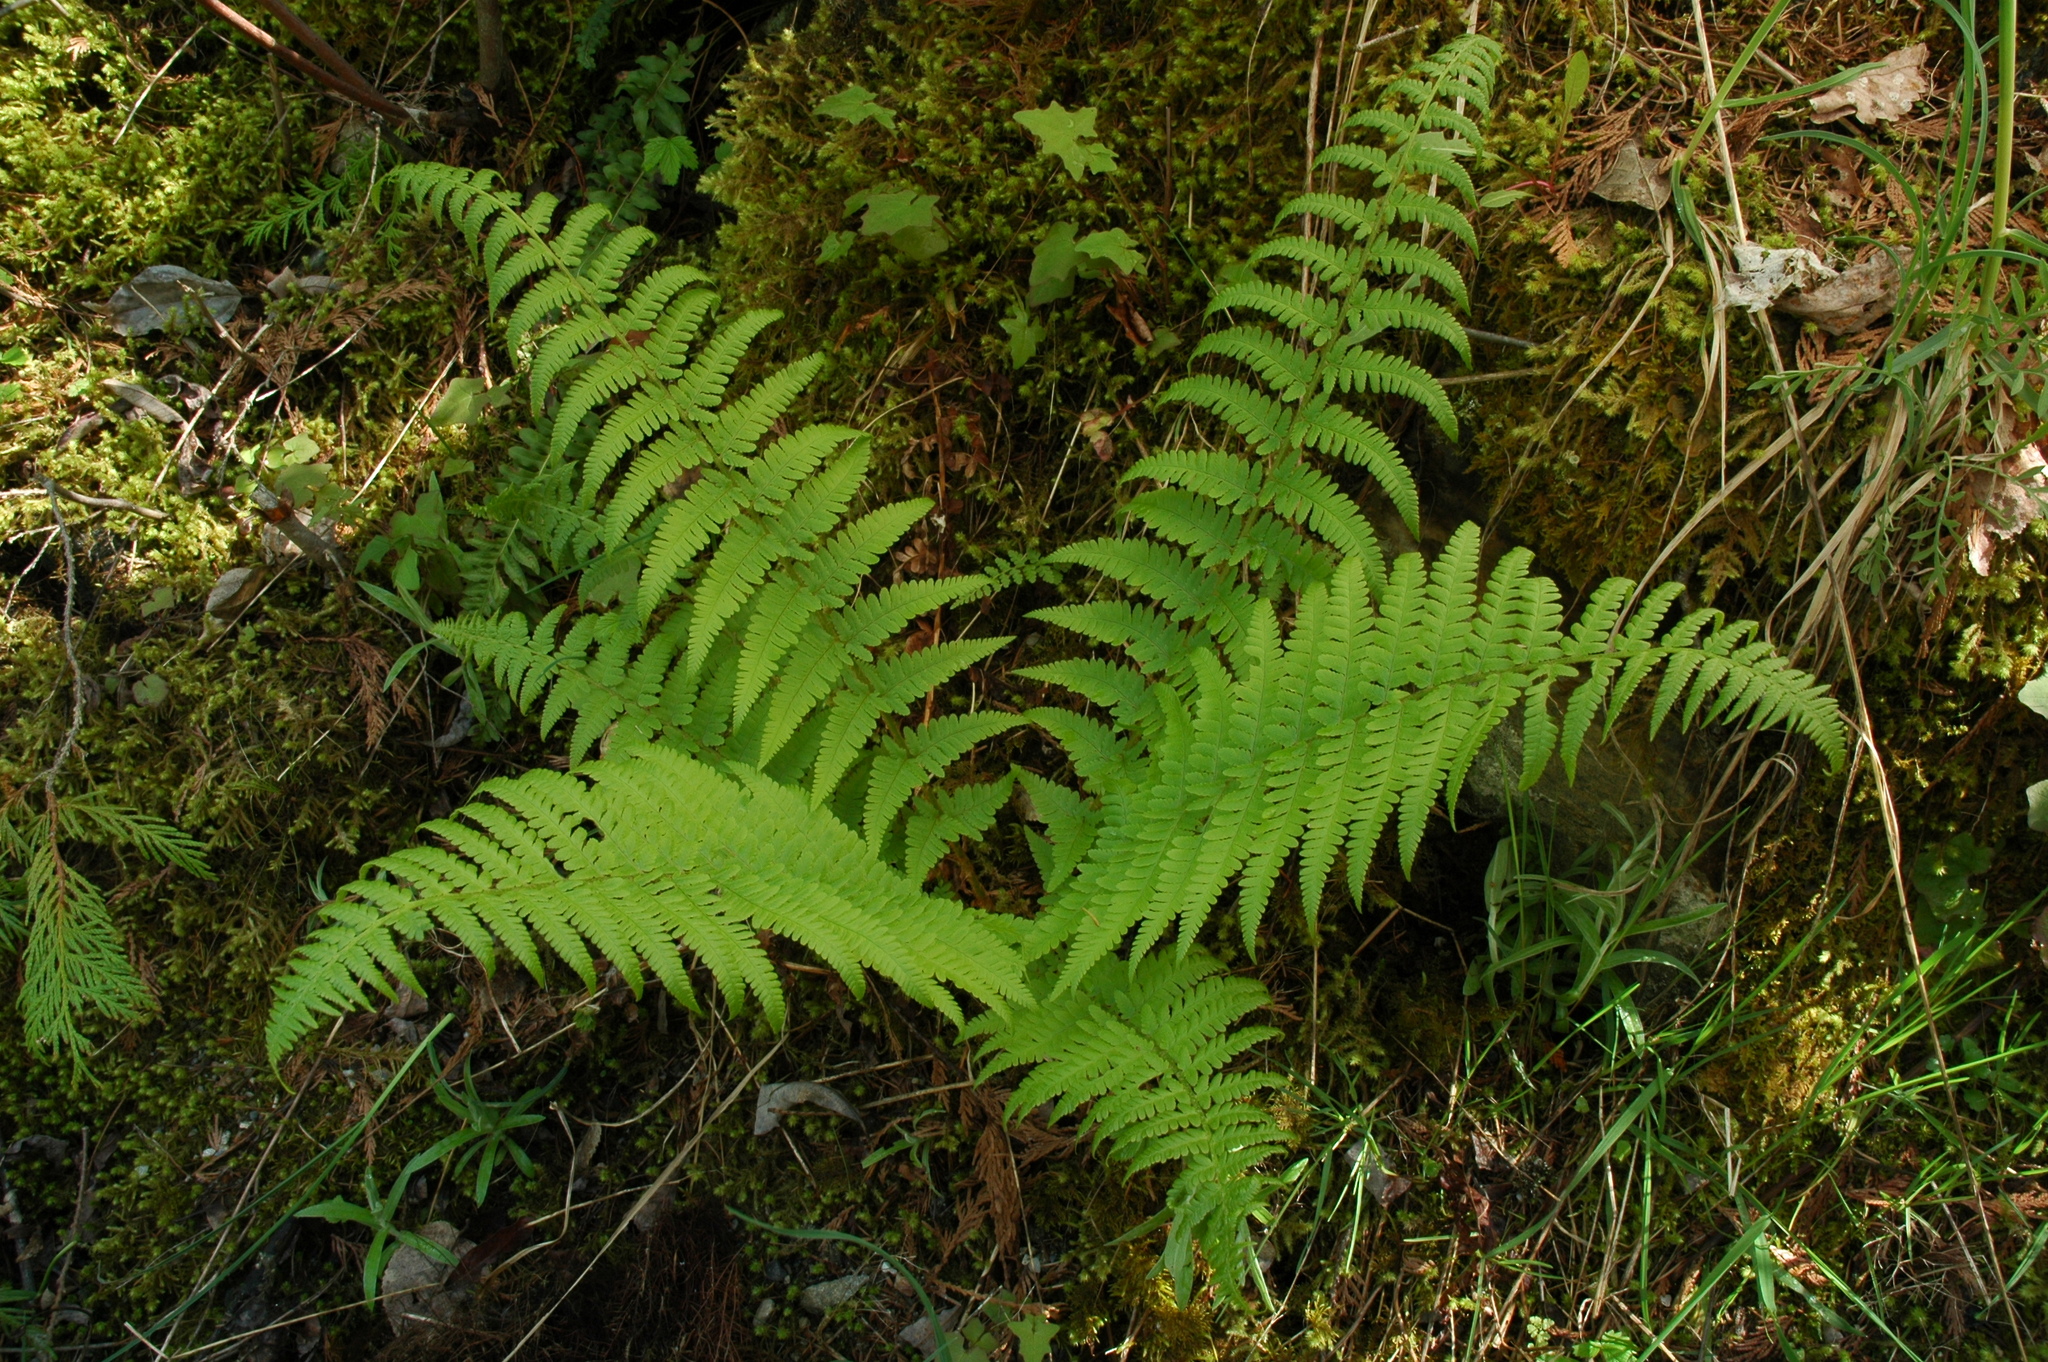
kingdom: Plantae
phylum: Tracheophyta
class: Polypodiopsida
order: Polypodiales
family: Dryopteridaceae
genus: Dryopteris
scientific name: Dryopteris filix-mas
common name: Male fern
